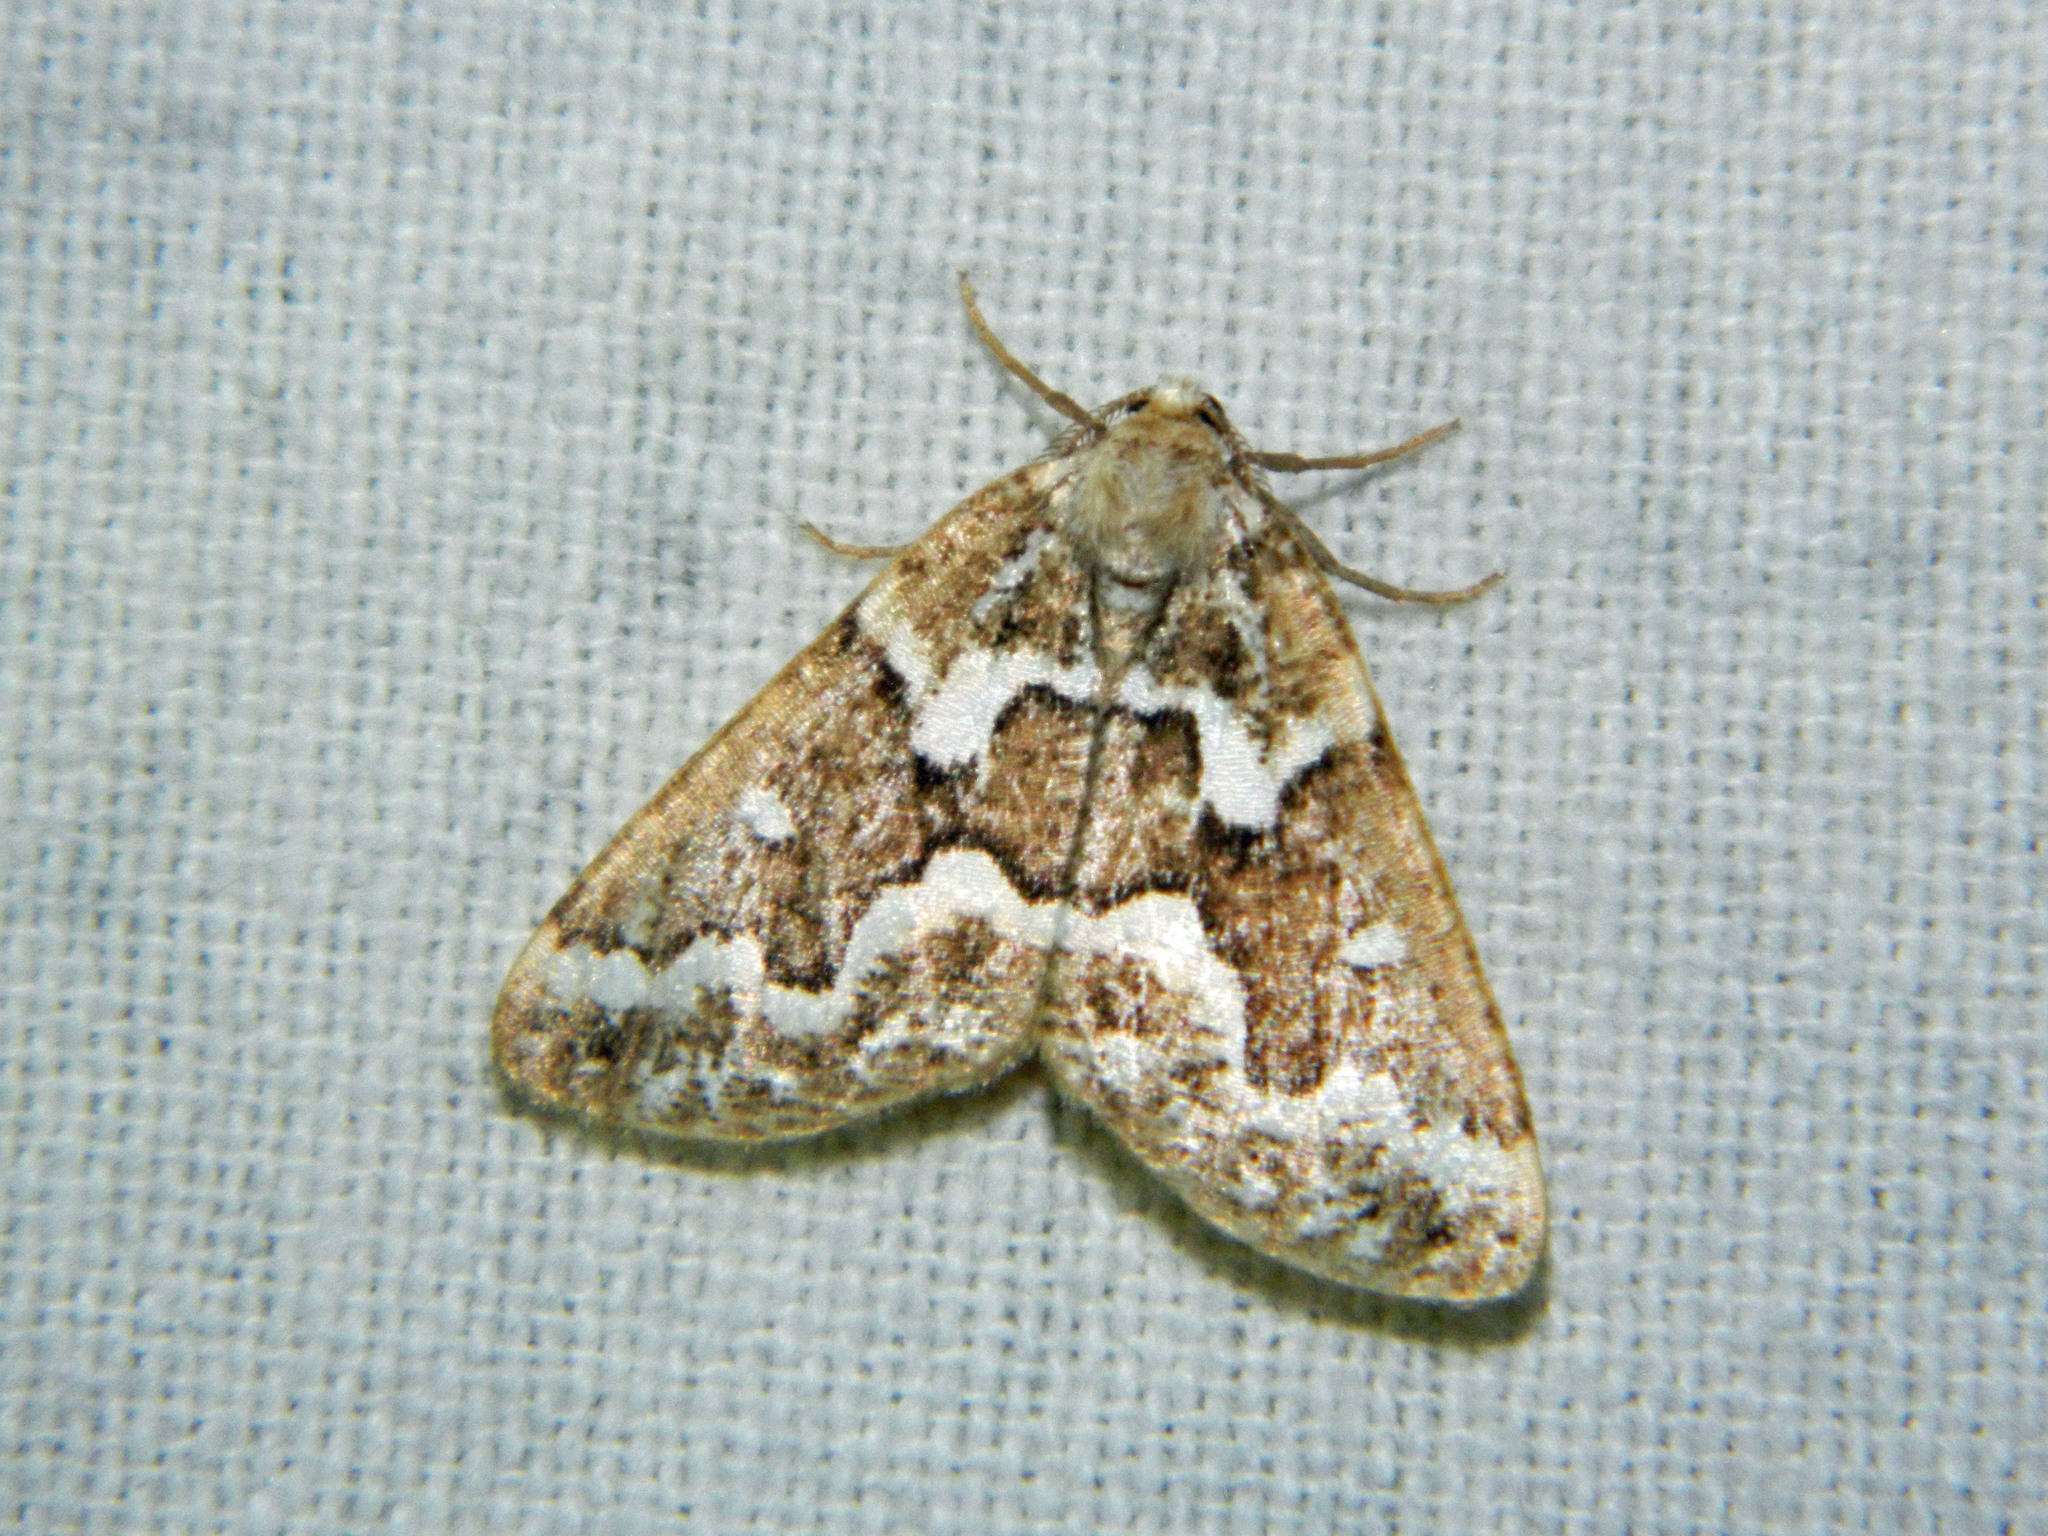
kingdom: Animalia
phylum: Arthropoda
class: Insecta
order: Lepidoptera
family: Geometridae
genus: Caripeta
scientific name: Caripeta divisata
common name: Gray spruce looper
